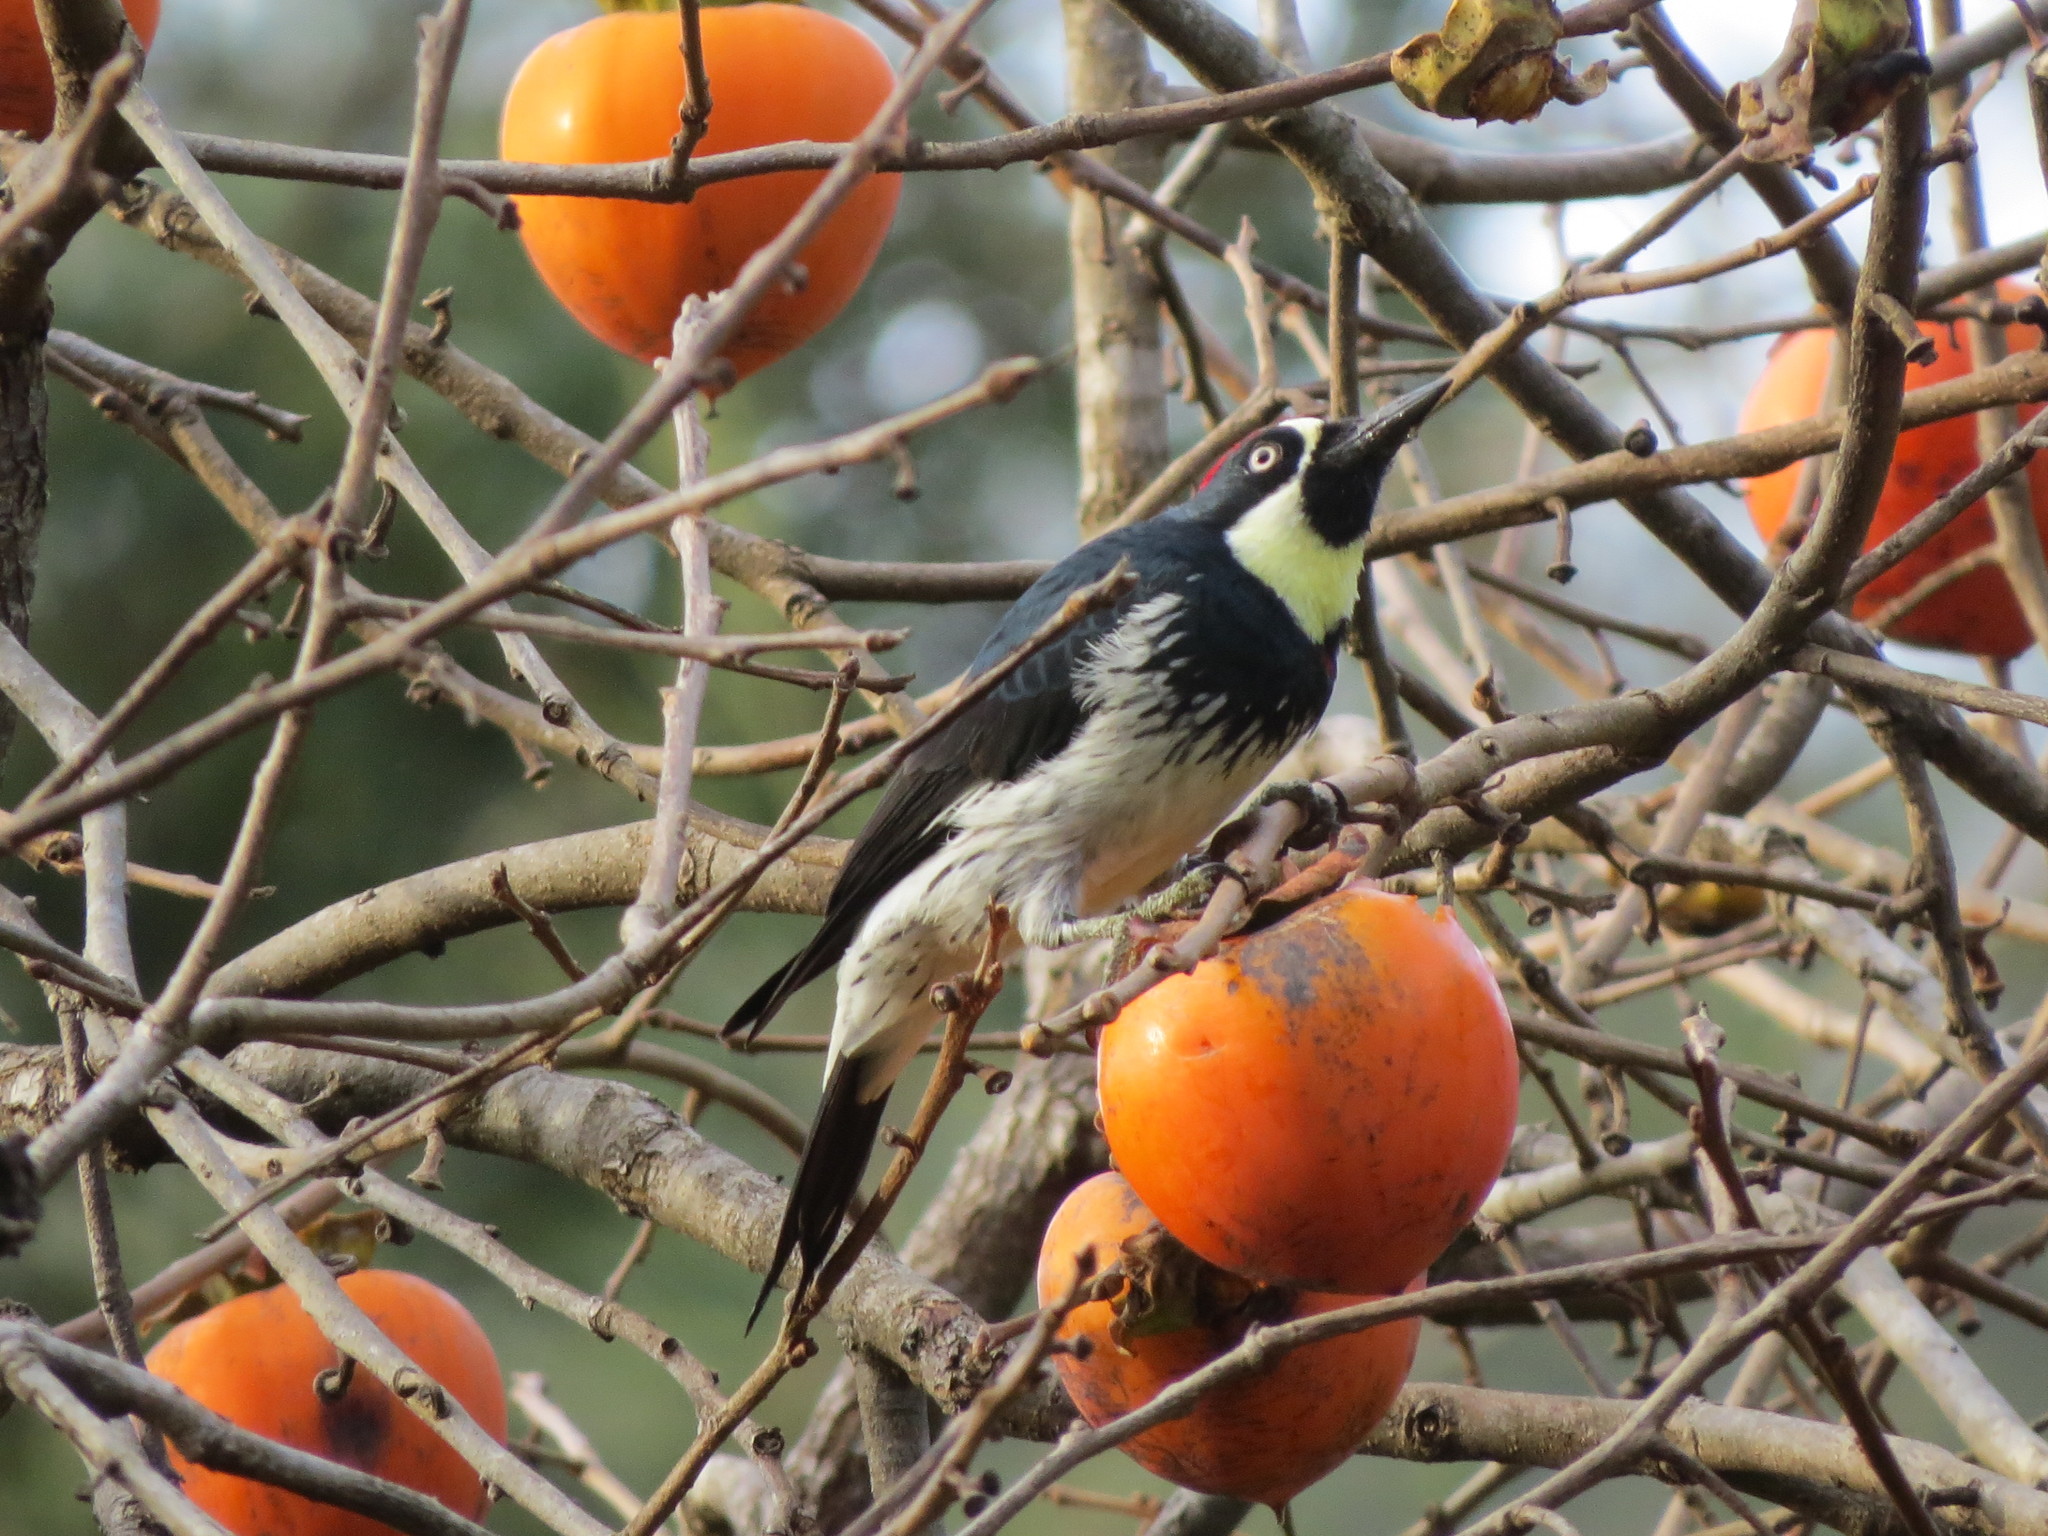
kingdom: Animalia
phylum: Chordata
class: Aves
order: Piciformes
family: Picidae
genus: Melanerpes
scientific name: Melanerpes formicivorus
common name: Acorn woodpecker
